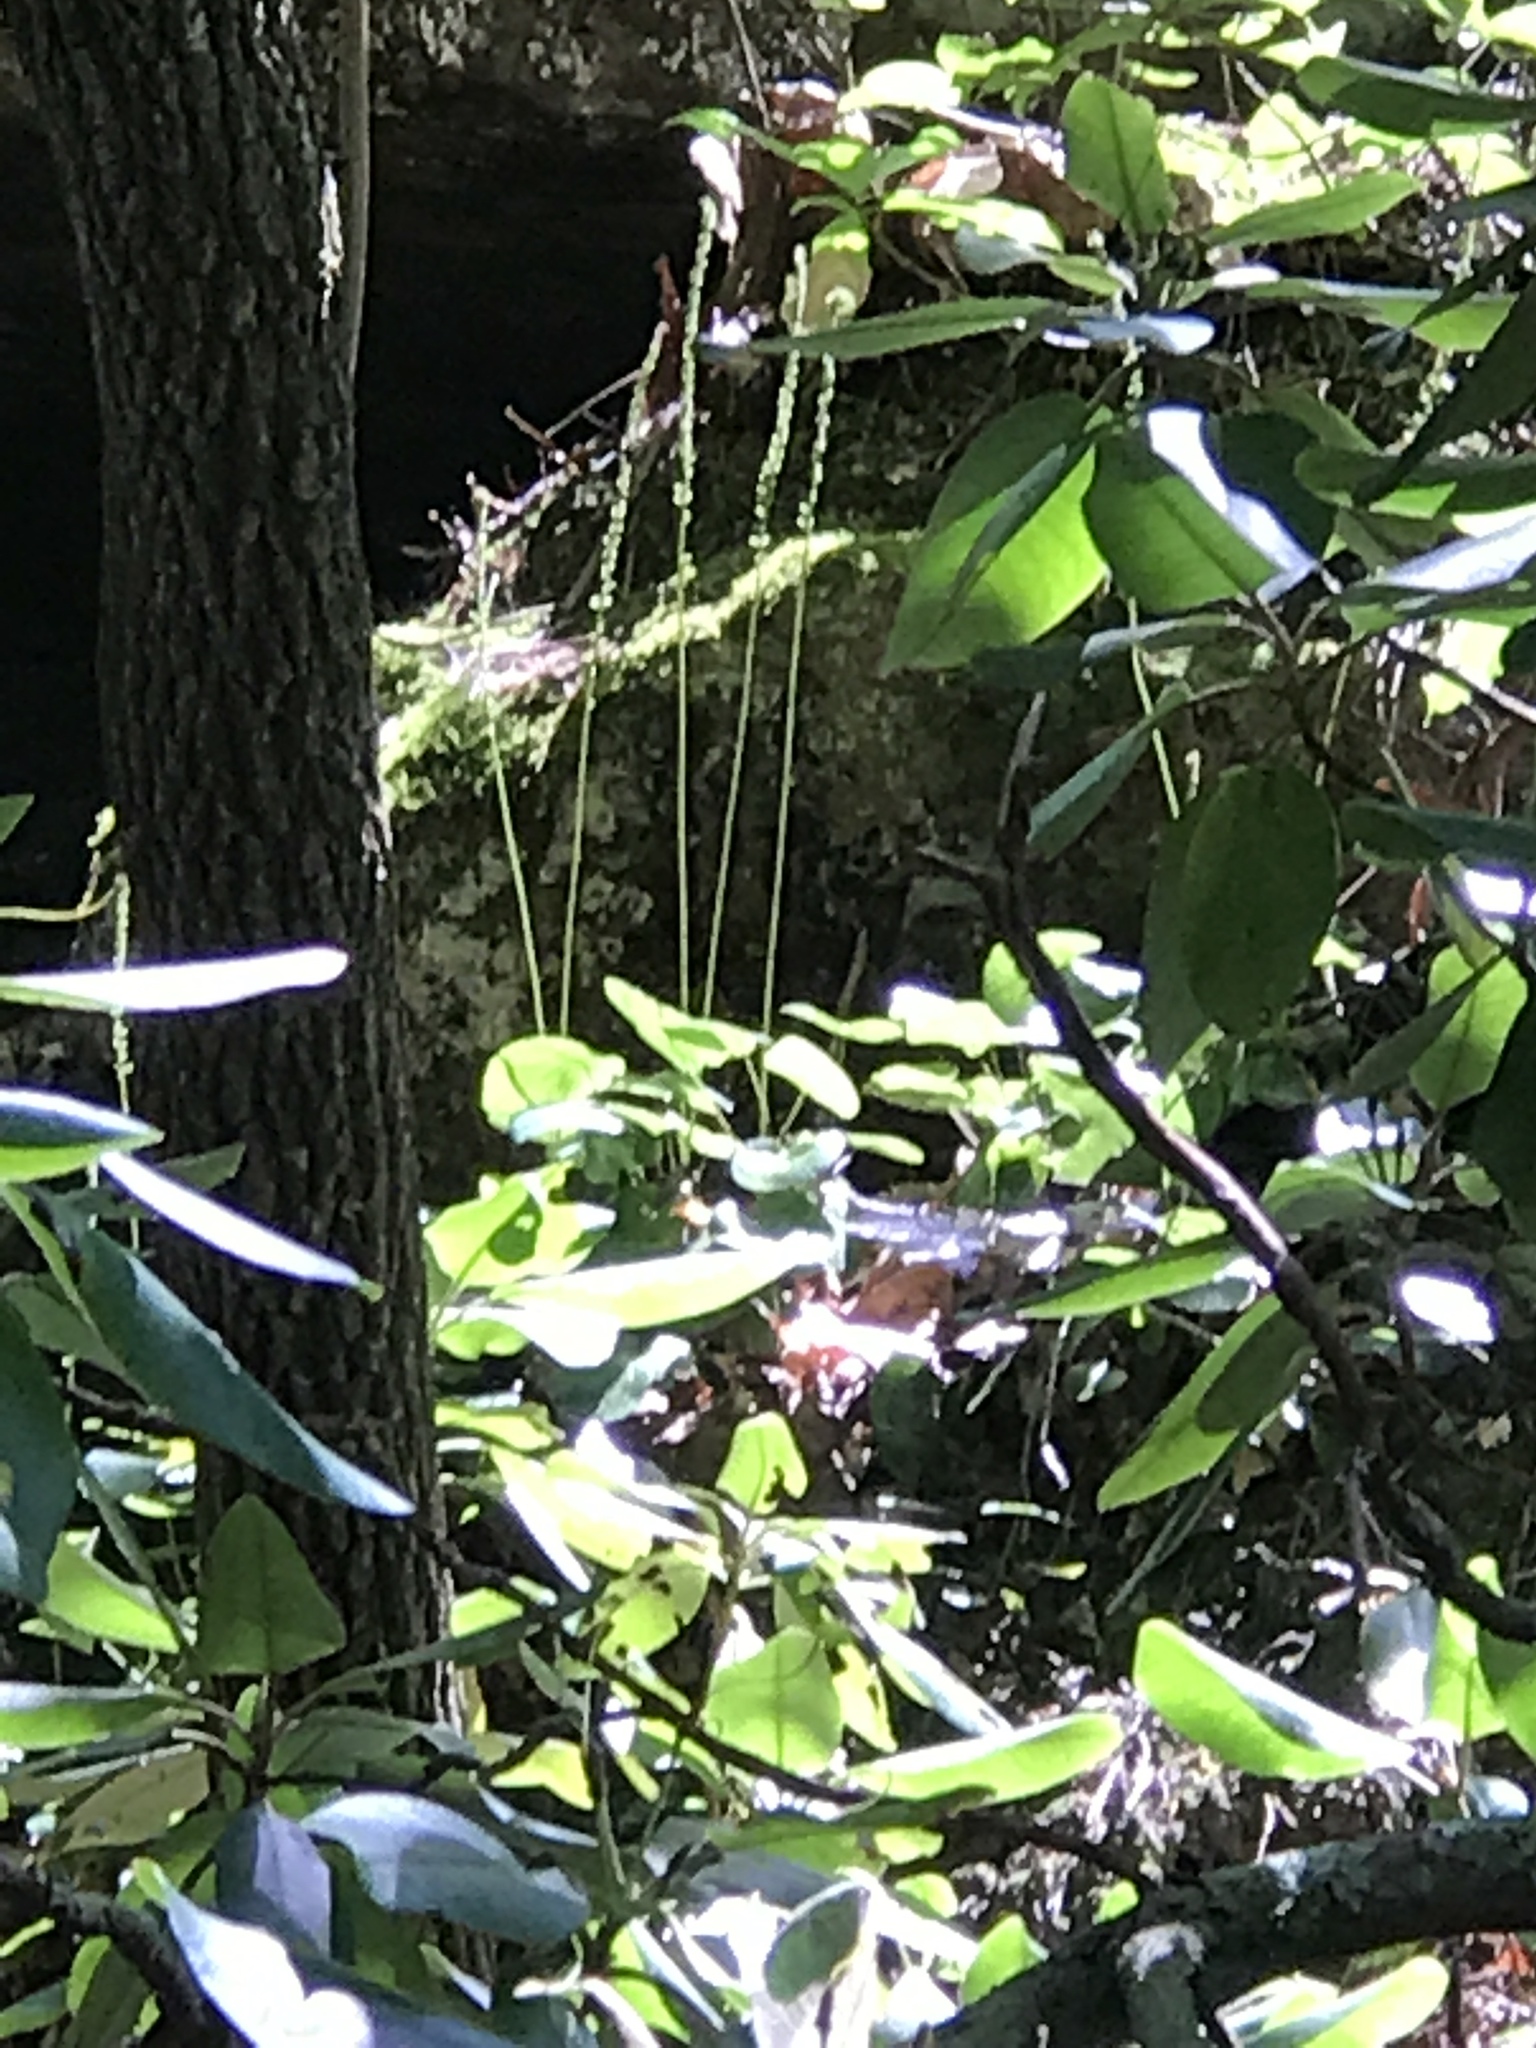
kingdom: Plantae
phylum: Tracheophyta
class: Magnoliopsida
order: Ericales
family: Diapensiaceae
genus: Galax
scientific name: Galax urceolata
